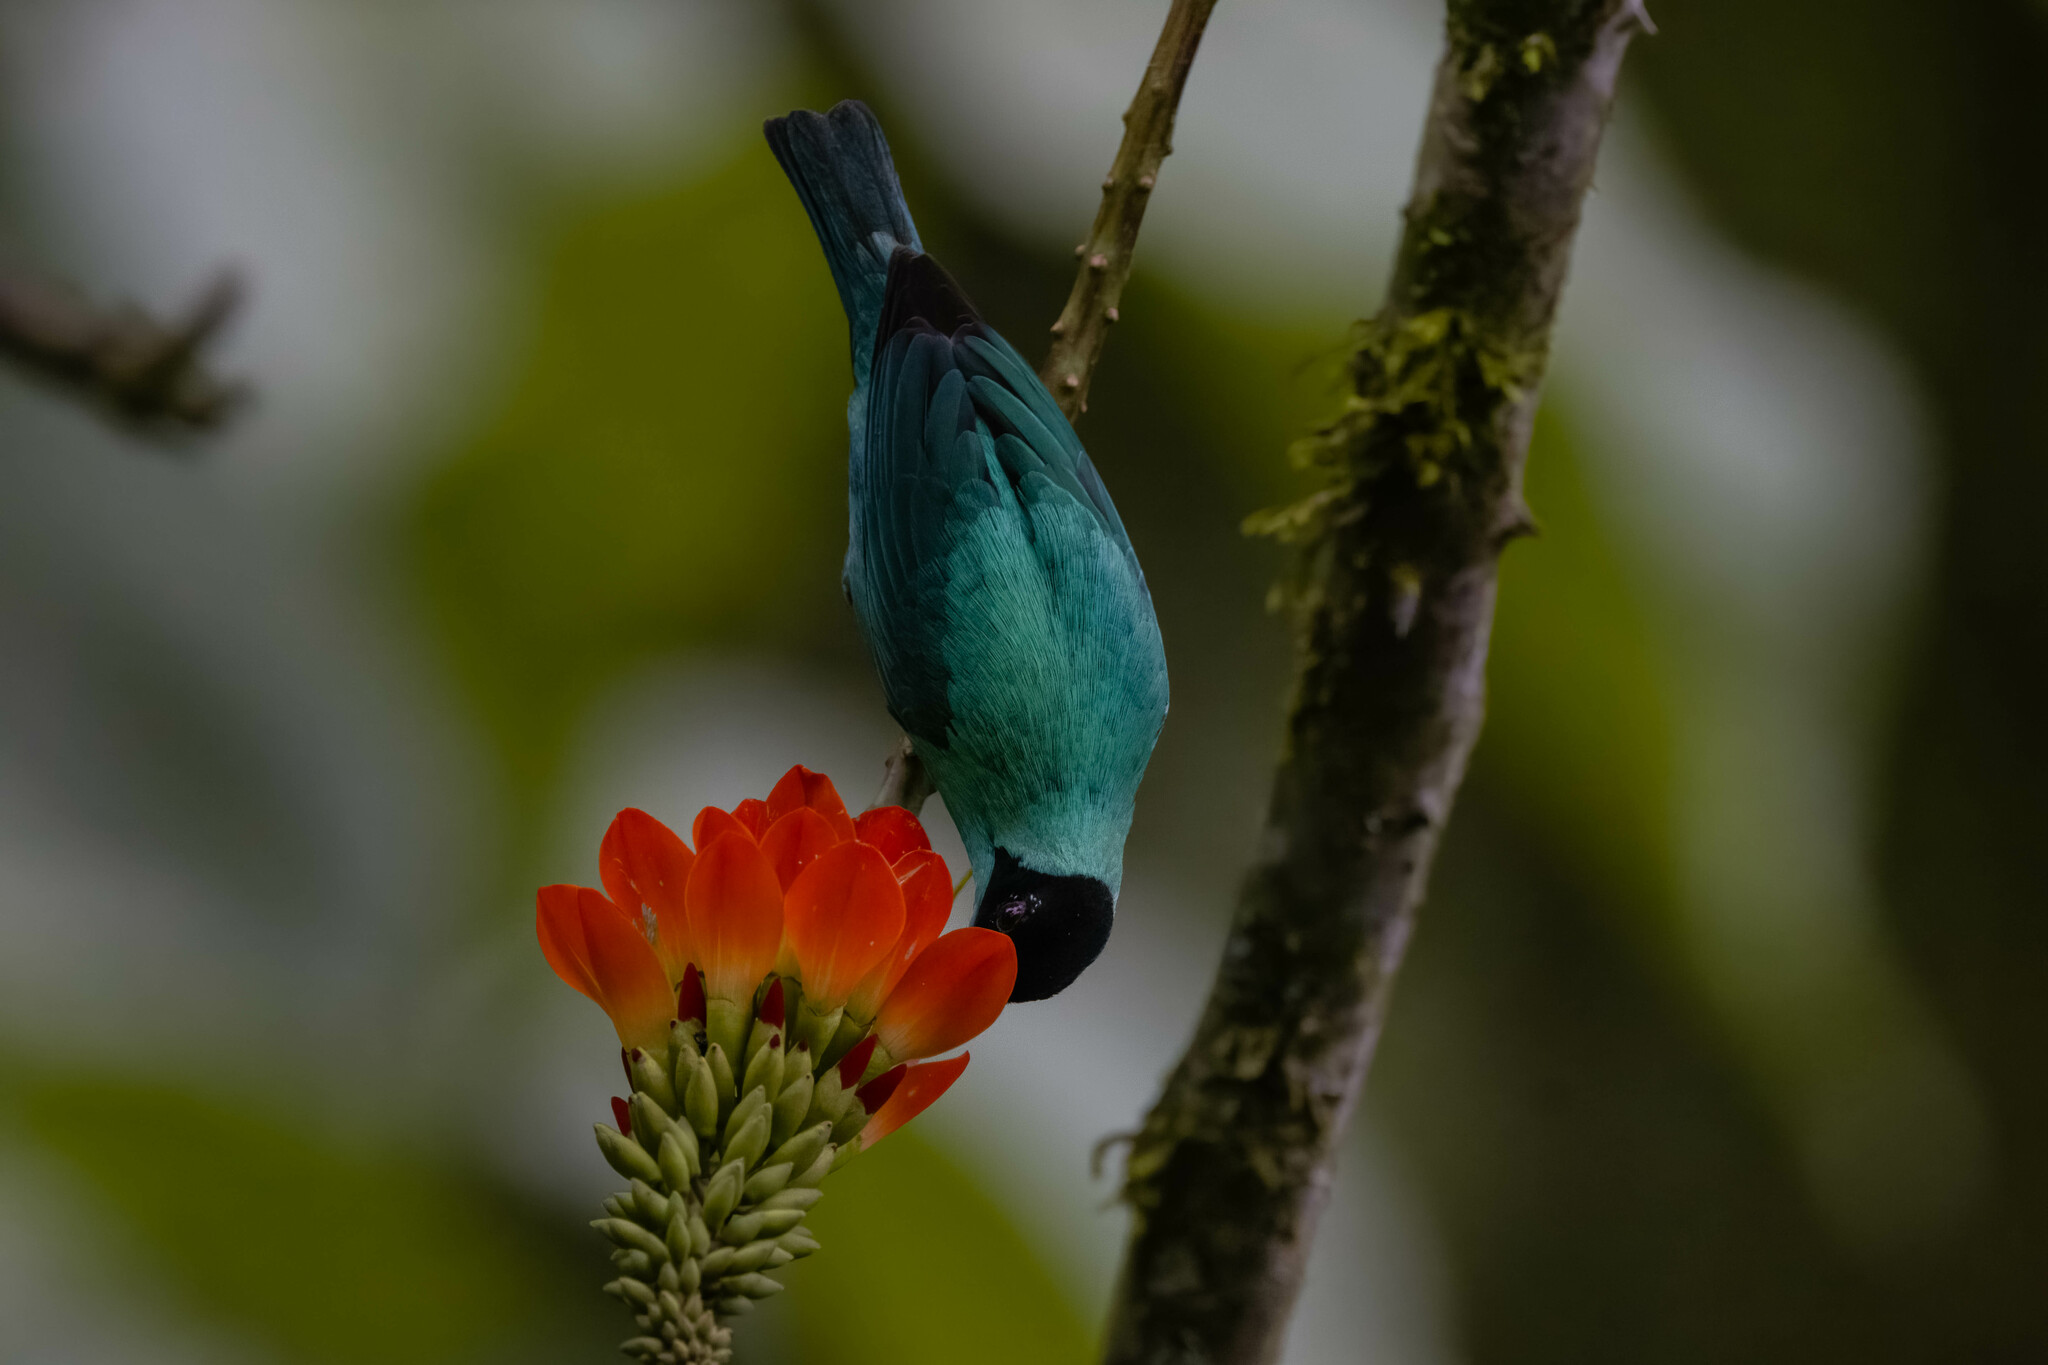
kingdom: Animalia
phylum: Chordata
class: Aves
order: Passeriformes
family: Thraupidae
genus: Chlorophanes
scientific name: Chlorophanes spiza
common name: Green honeycreeper
